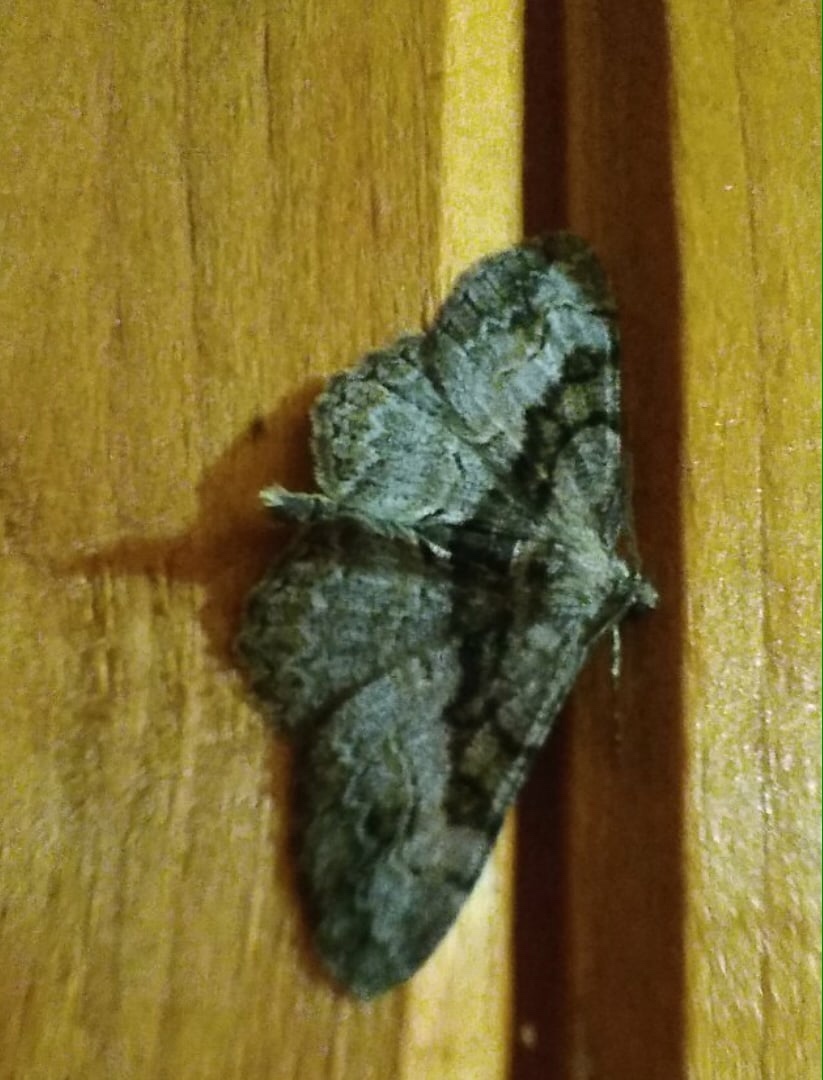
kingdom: Animalia
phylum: Arthropoda
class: Insecta
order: Lepidoptera
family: Geometridae
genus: Alcis
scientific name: Alcis repandata
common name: Mottled beauty
